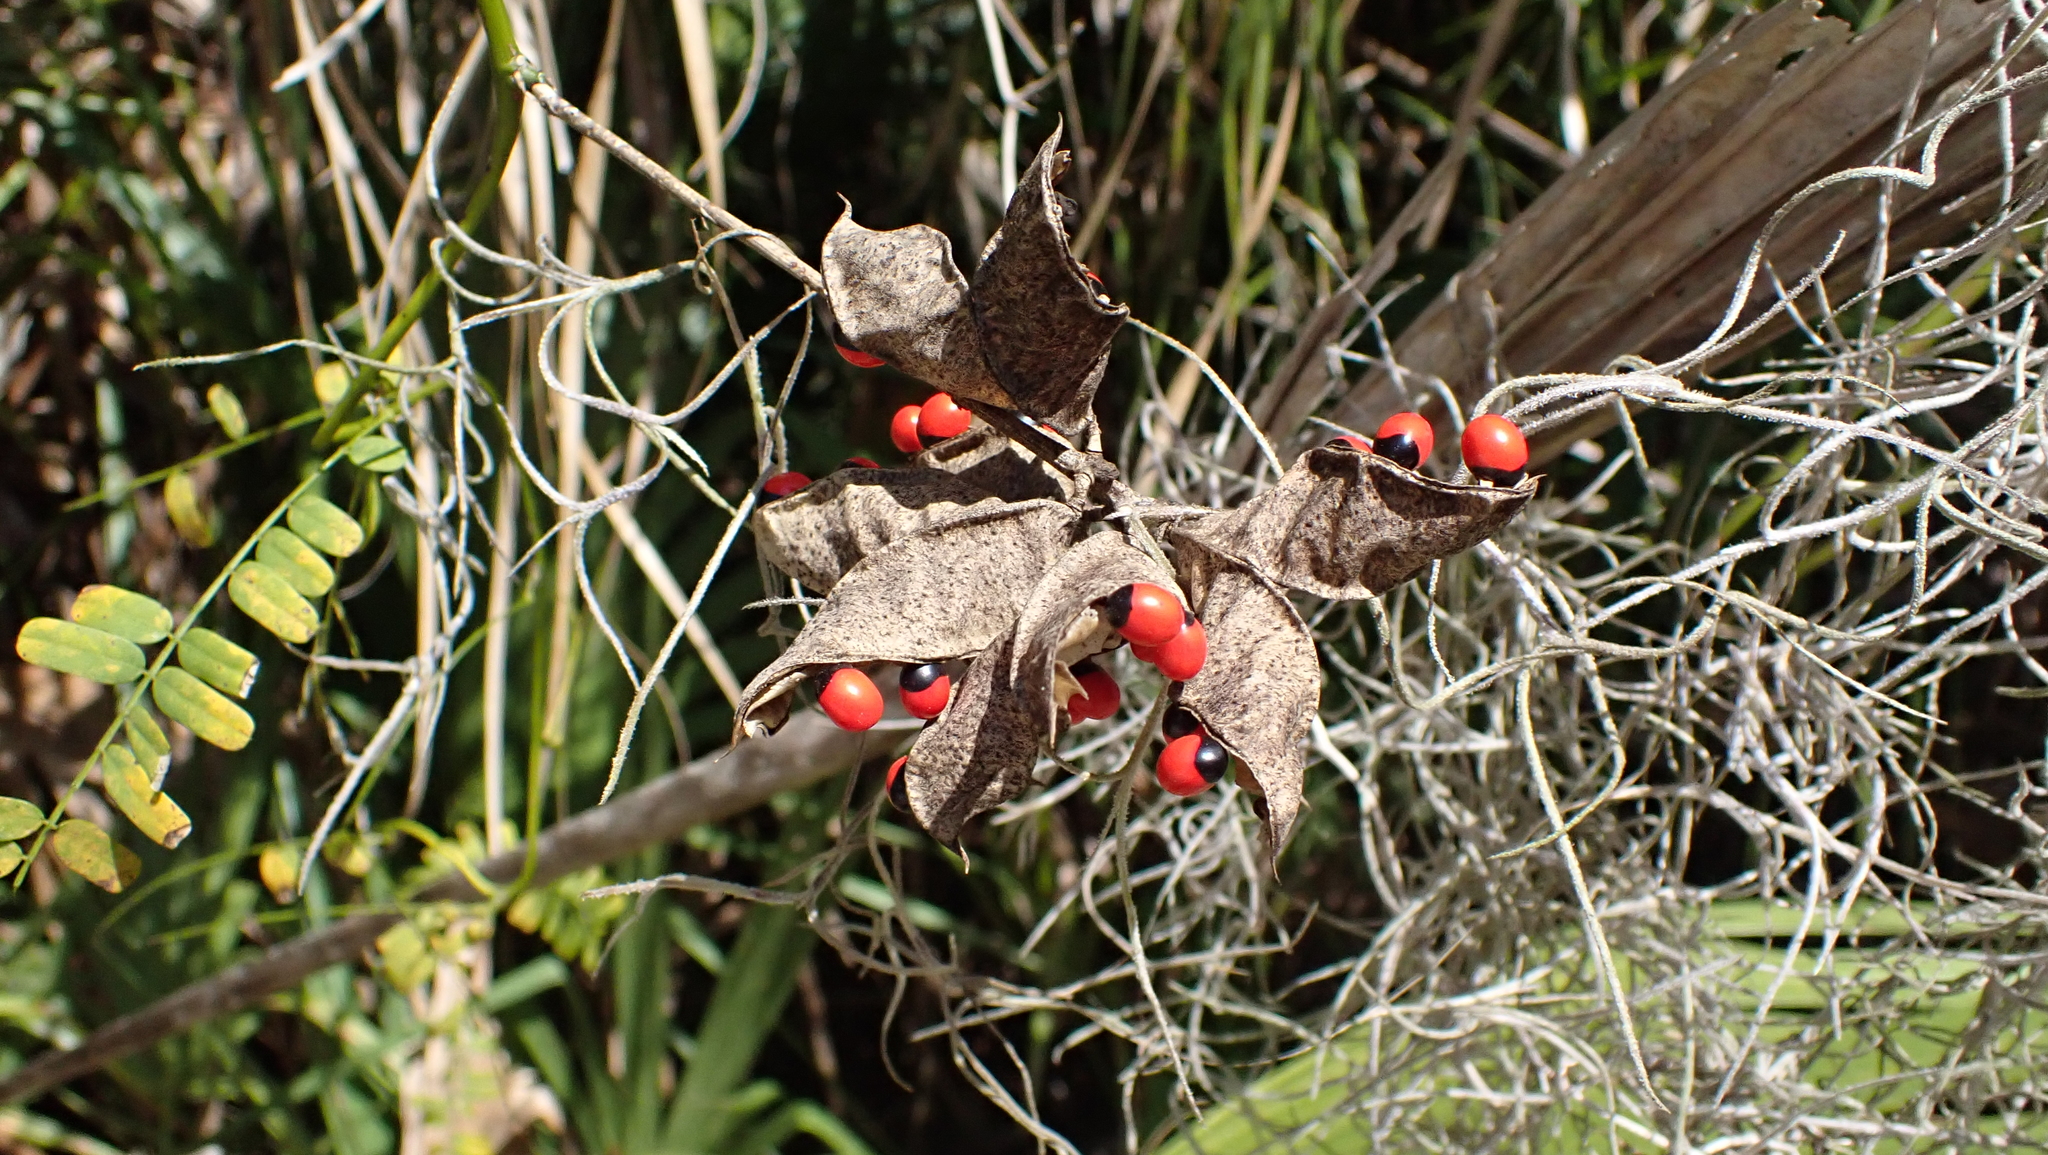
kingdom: Plantae
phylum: Tracheophyta
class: Magnoliopsida
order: Fabales
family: Fabaceae
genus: Abrus
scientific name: Abrus precatorius
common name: Rosarypea
